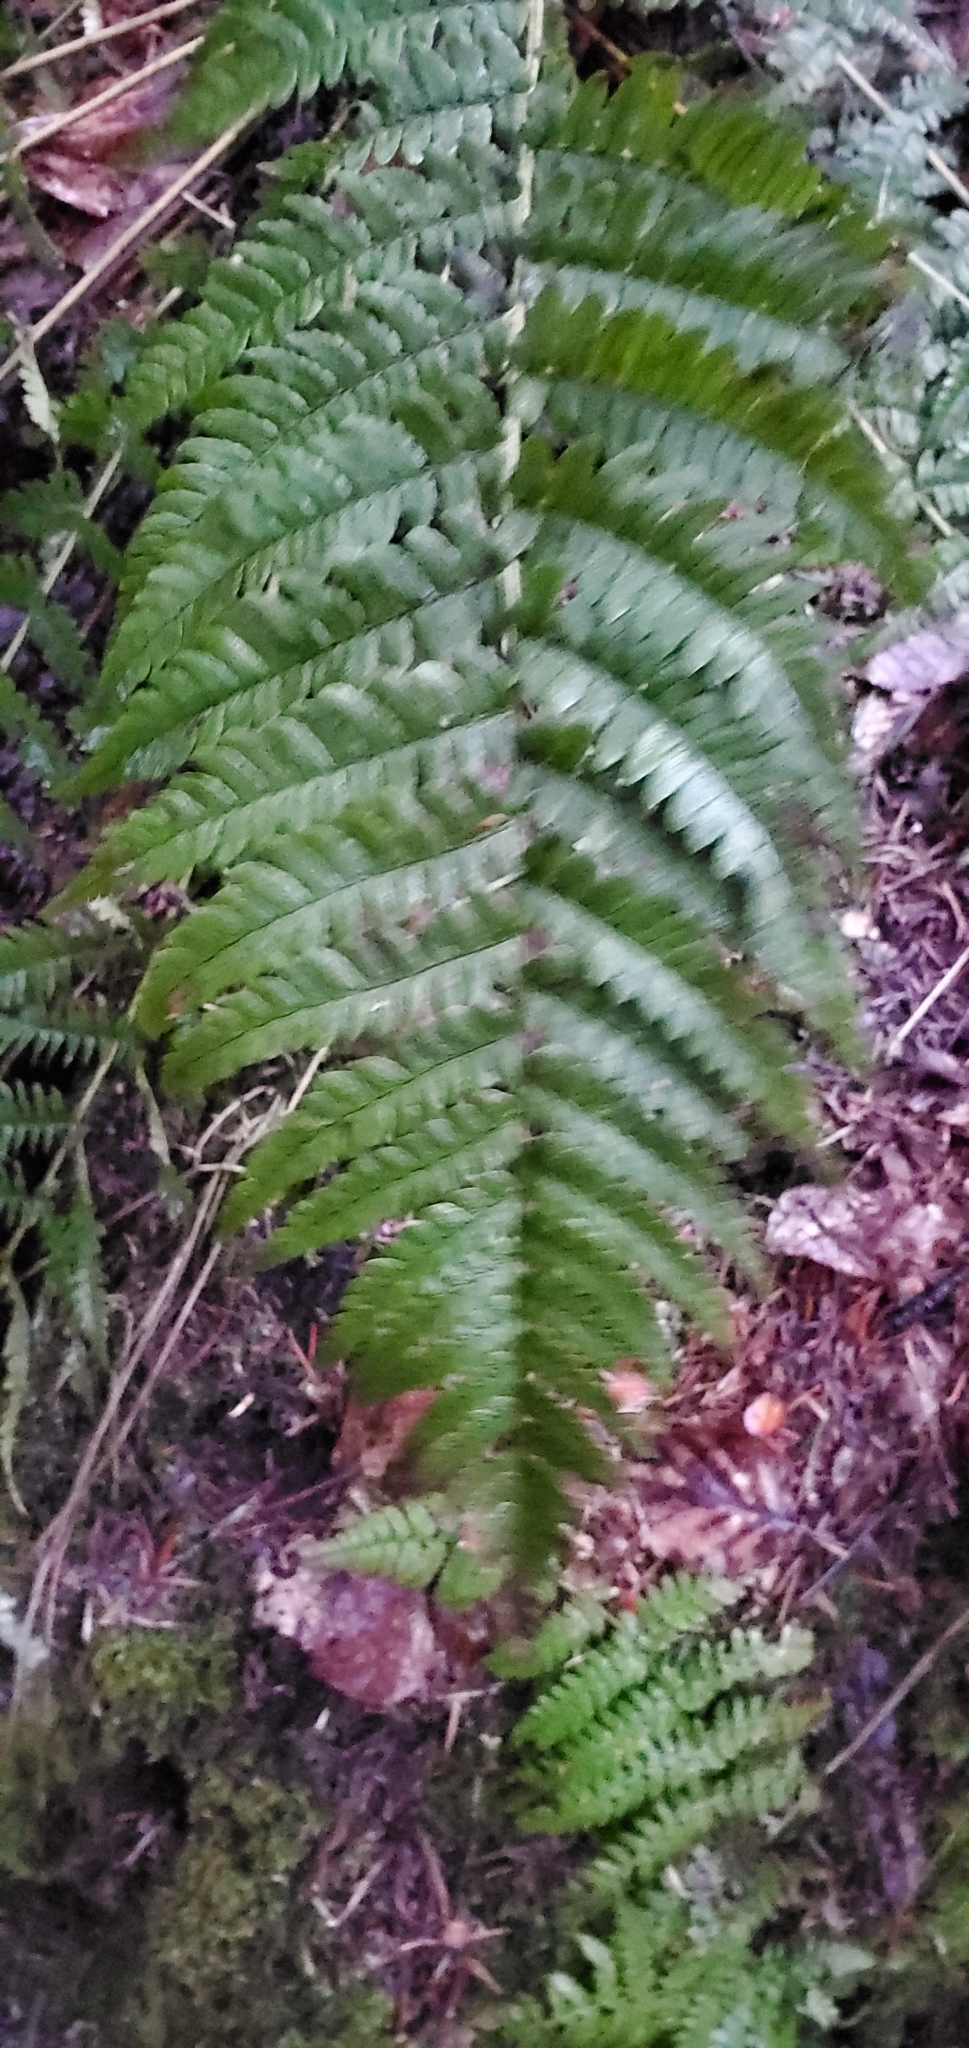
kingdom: Plantae
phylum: Tracheophyta
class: Polypodiopsida
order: Polypodiales
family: Dryopteridaceae
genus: Dryopteris
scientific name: Dryopteris marginalis
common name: Marginal wood fern
